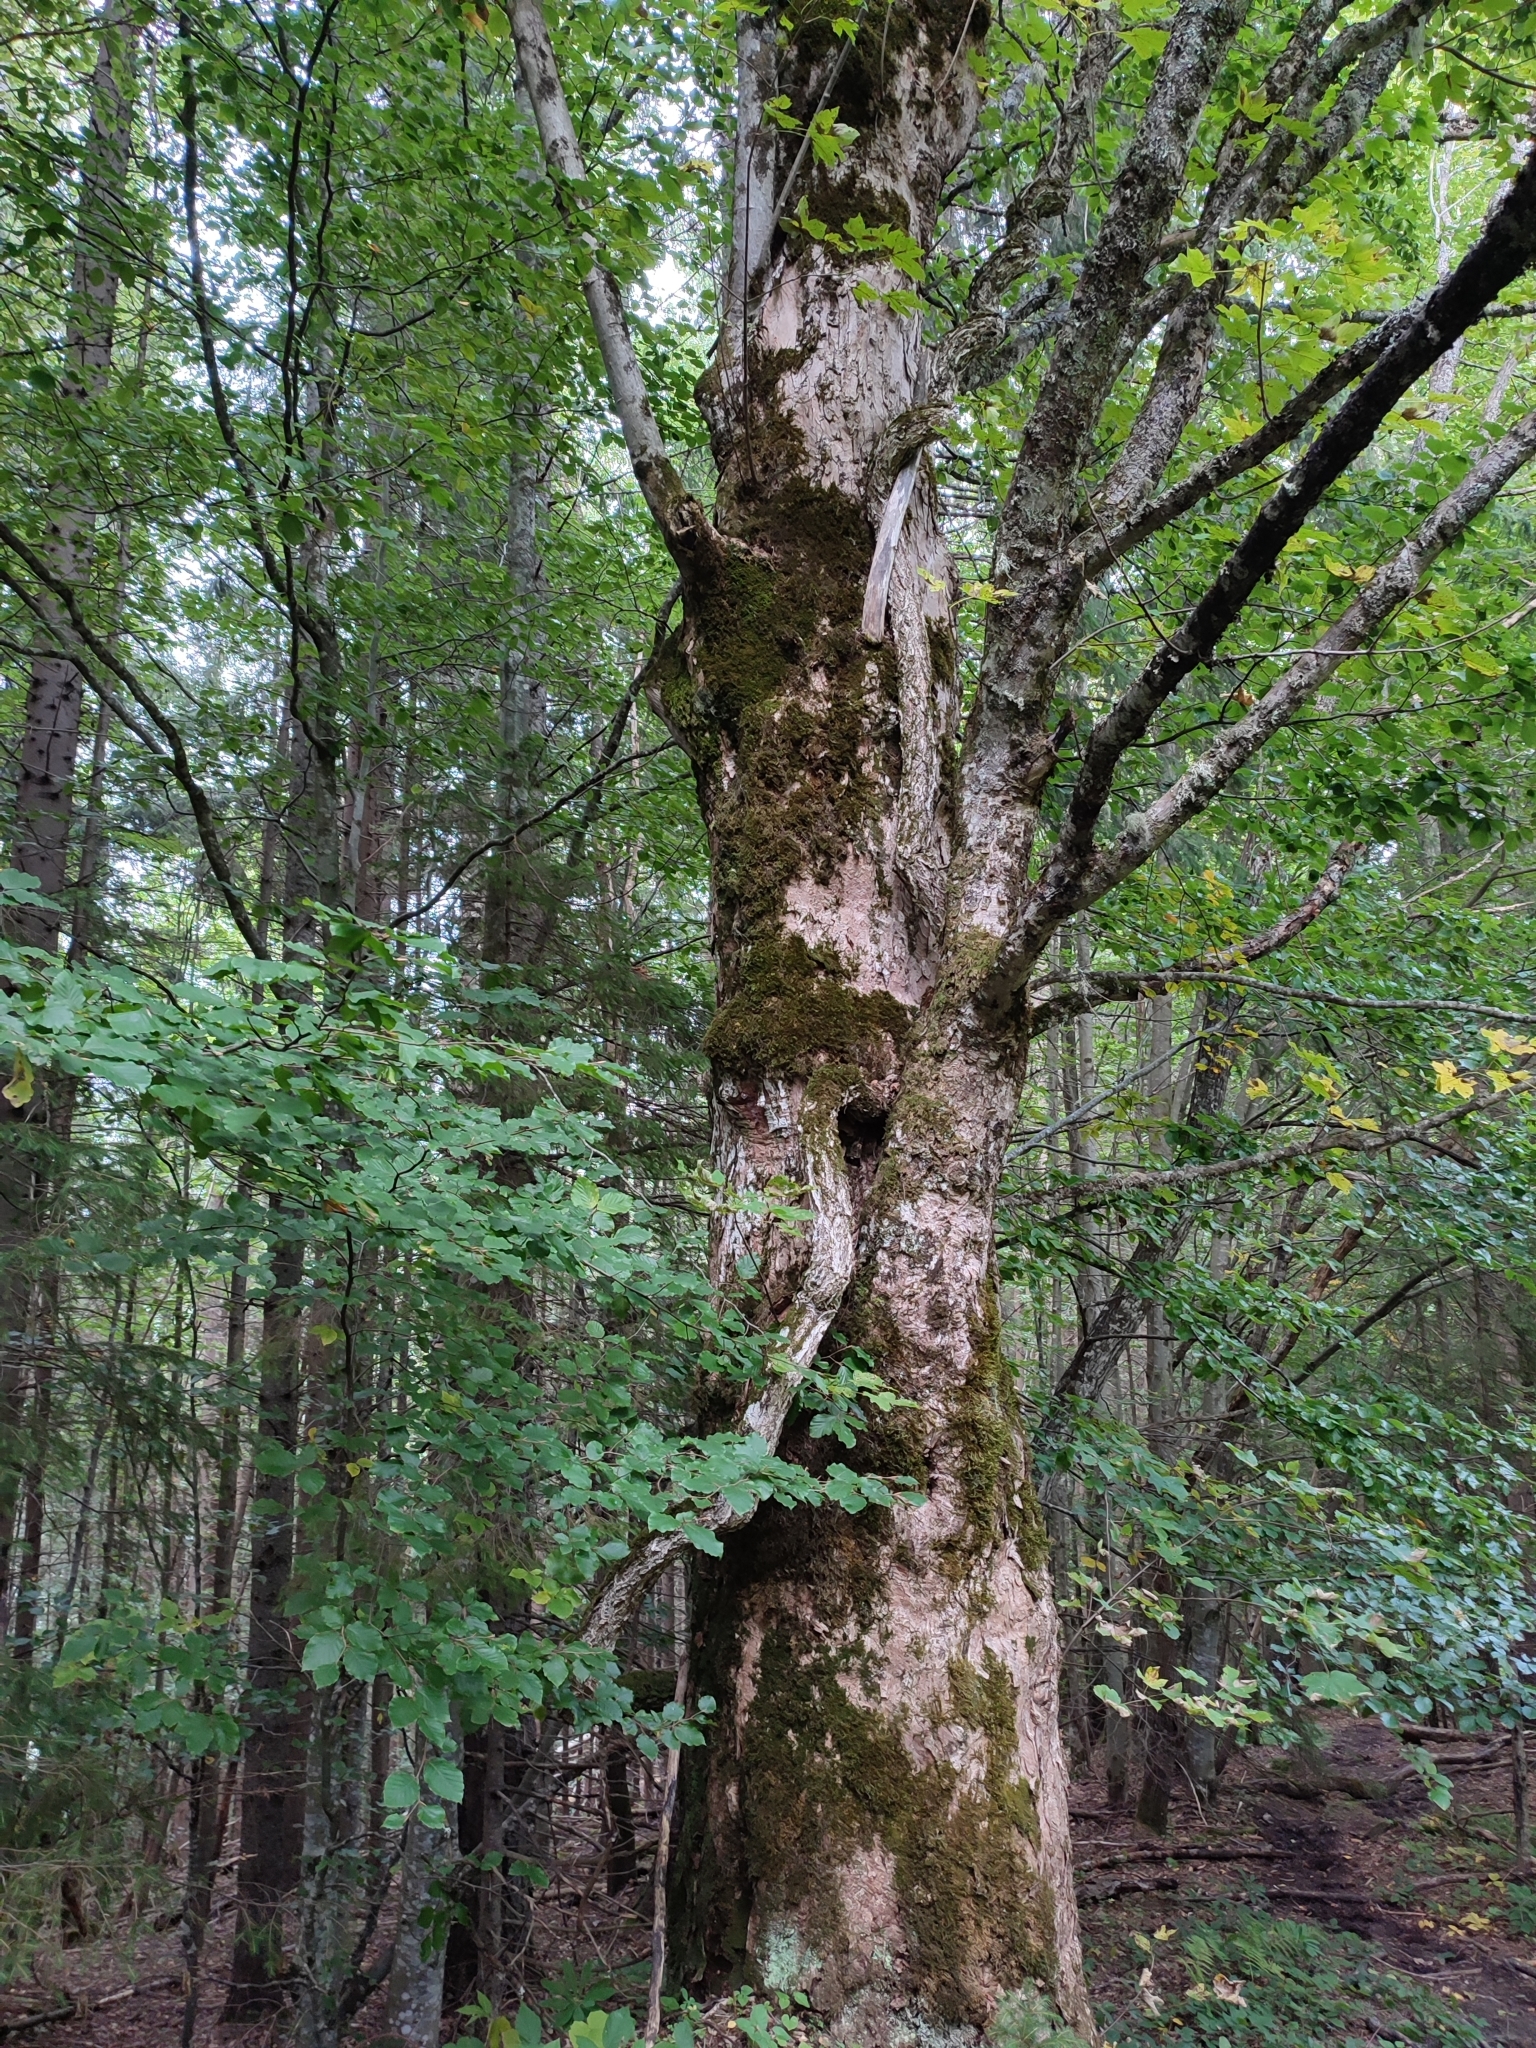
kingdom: Plantae
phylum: Tracheophyta
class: Magnoliopsida
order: Sapindales
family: Sapindaceae
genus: Acer
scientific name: Acer pseudoplatanus
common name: Sycamore
